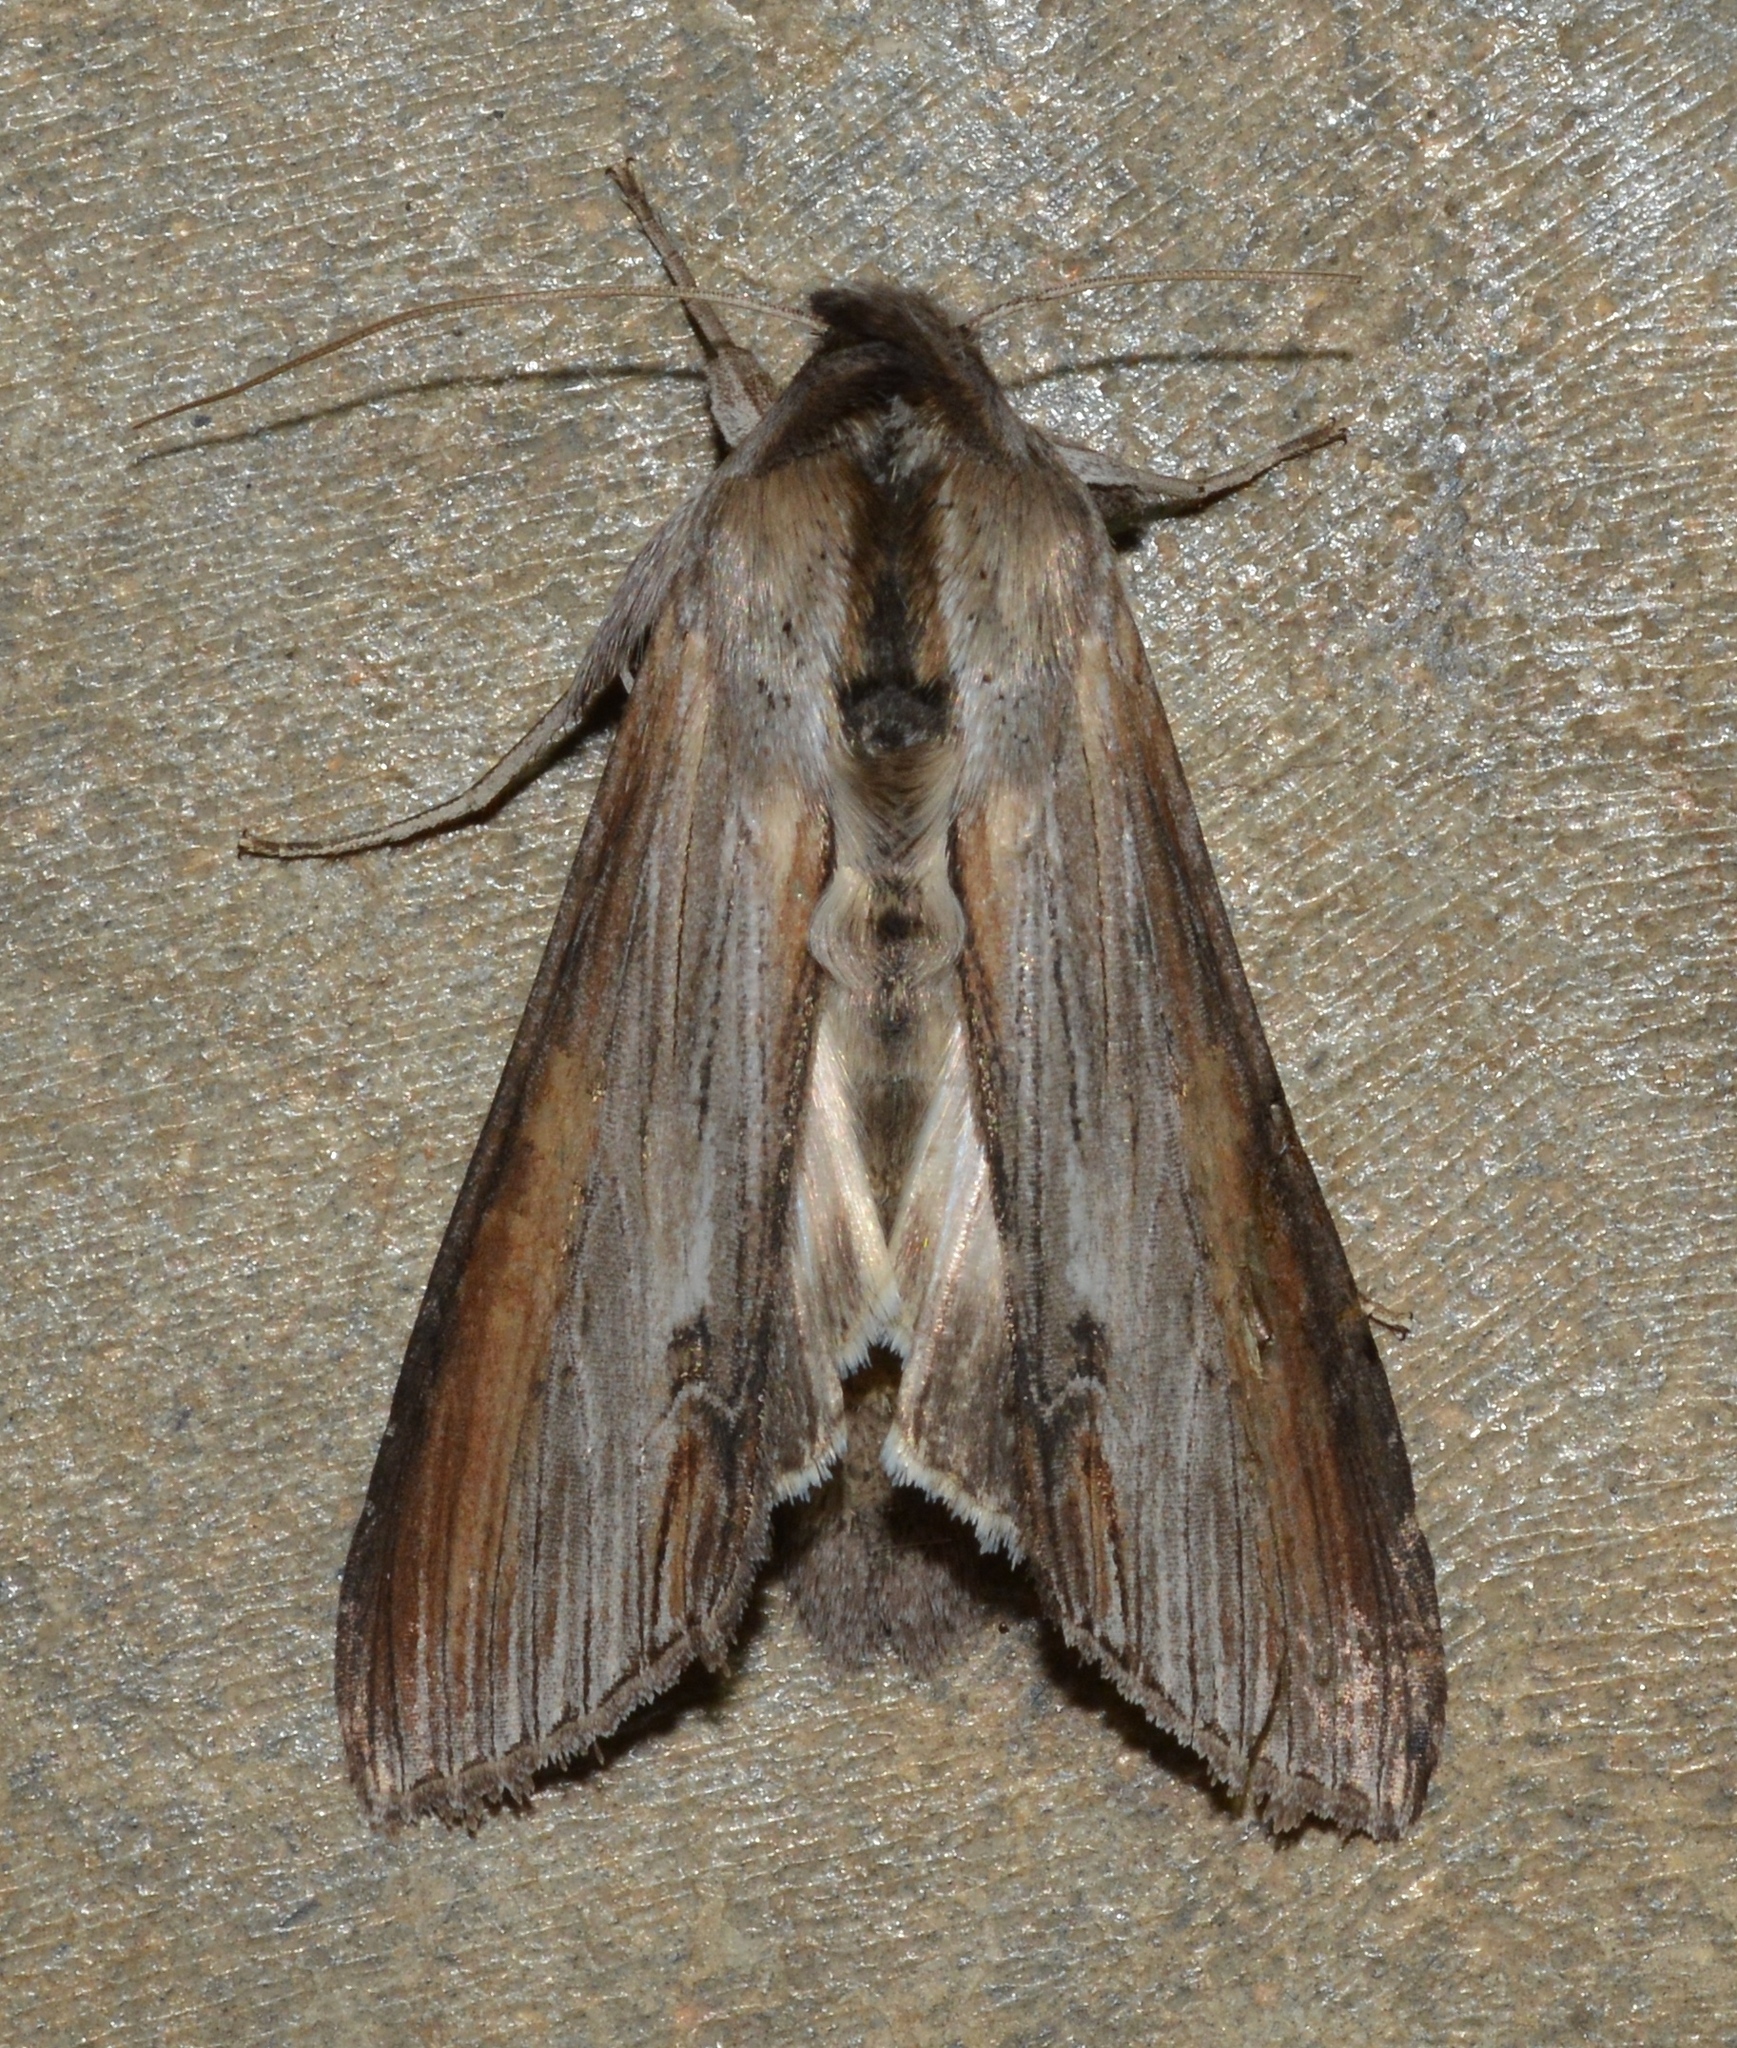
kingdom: Animalia
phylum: Arthropoda
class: Insecta
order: Lepidoptera
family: Noctuidae
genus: Cucullia
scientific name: Cucullia asteroides
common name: Asteroid moth
